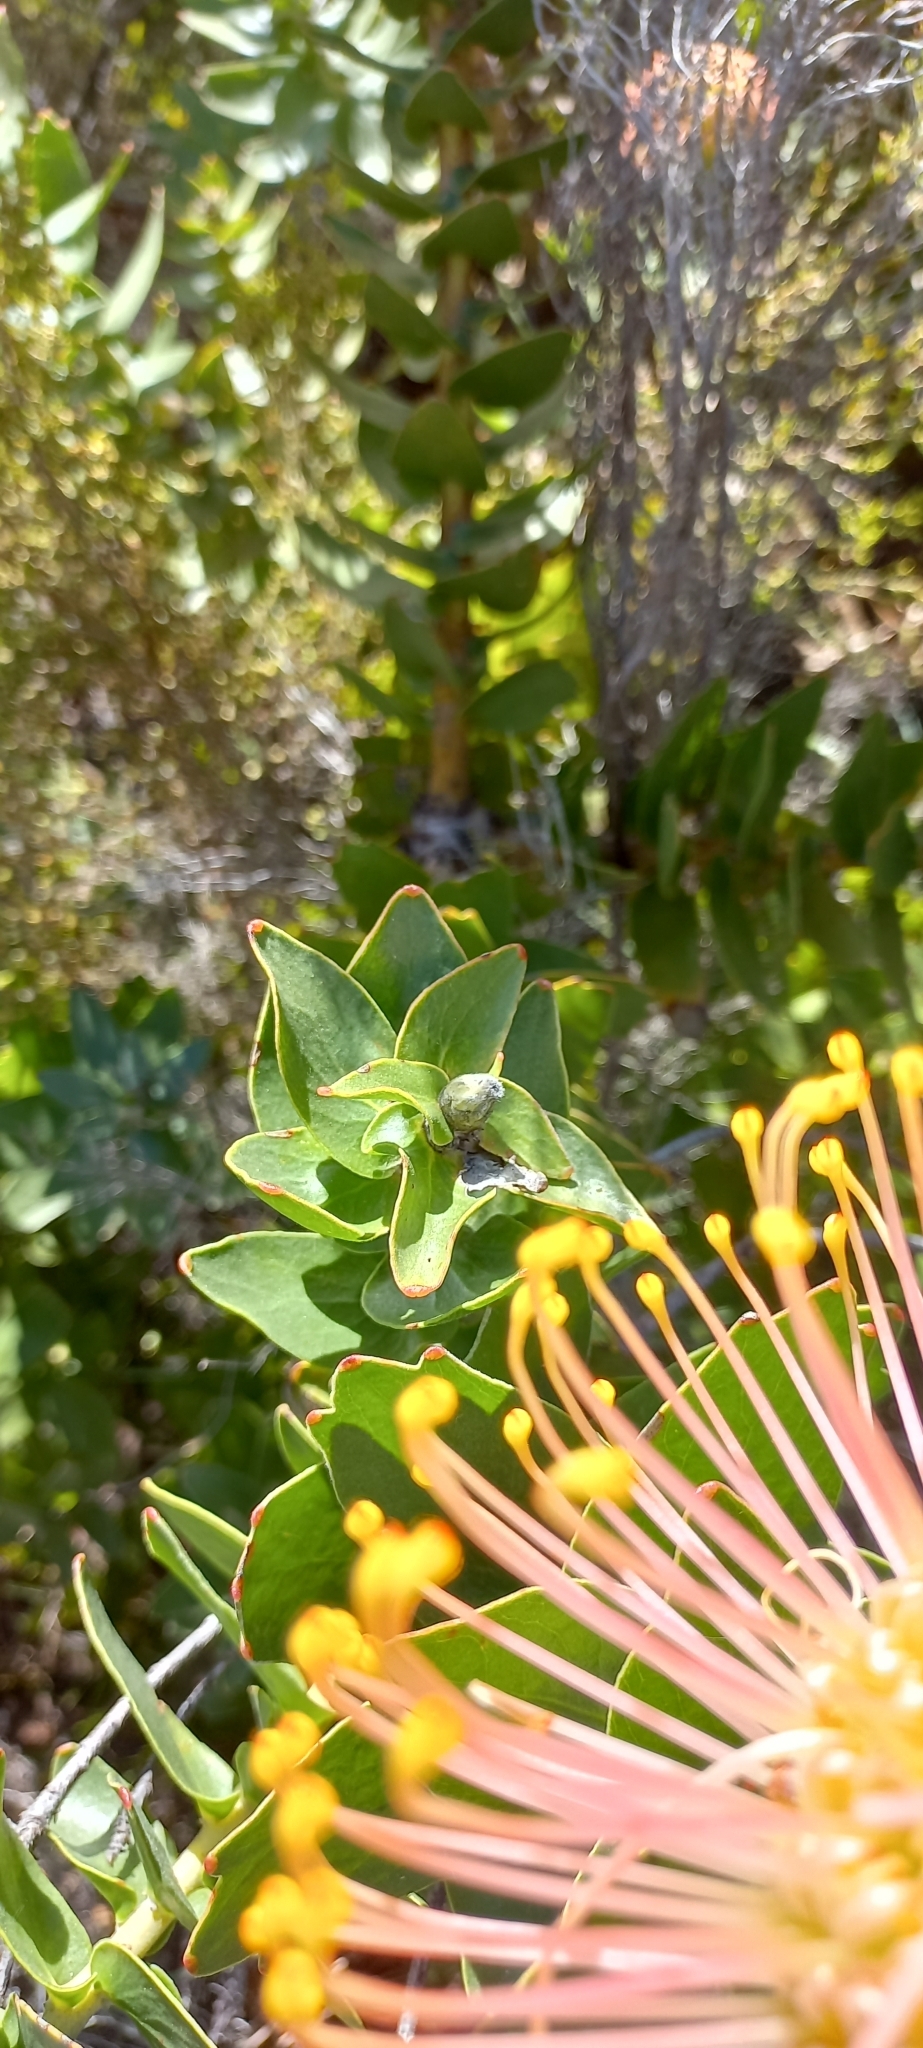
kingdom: Plantae
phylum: Tracheophyta
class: Magnoliopsida
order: Proteales
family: Proteaceae
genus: Leucospermum
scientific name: Leucospermum cordifolium
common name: Red pincushion-protea
